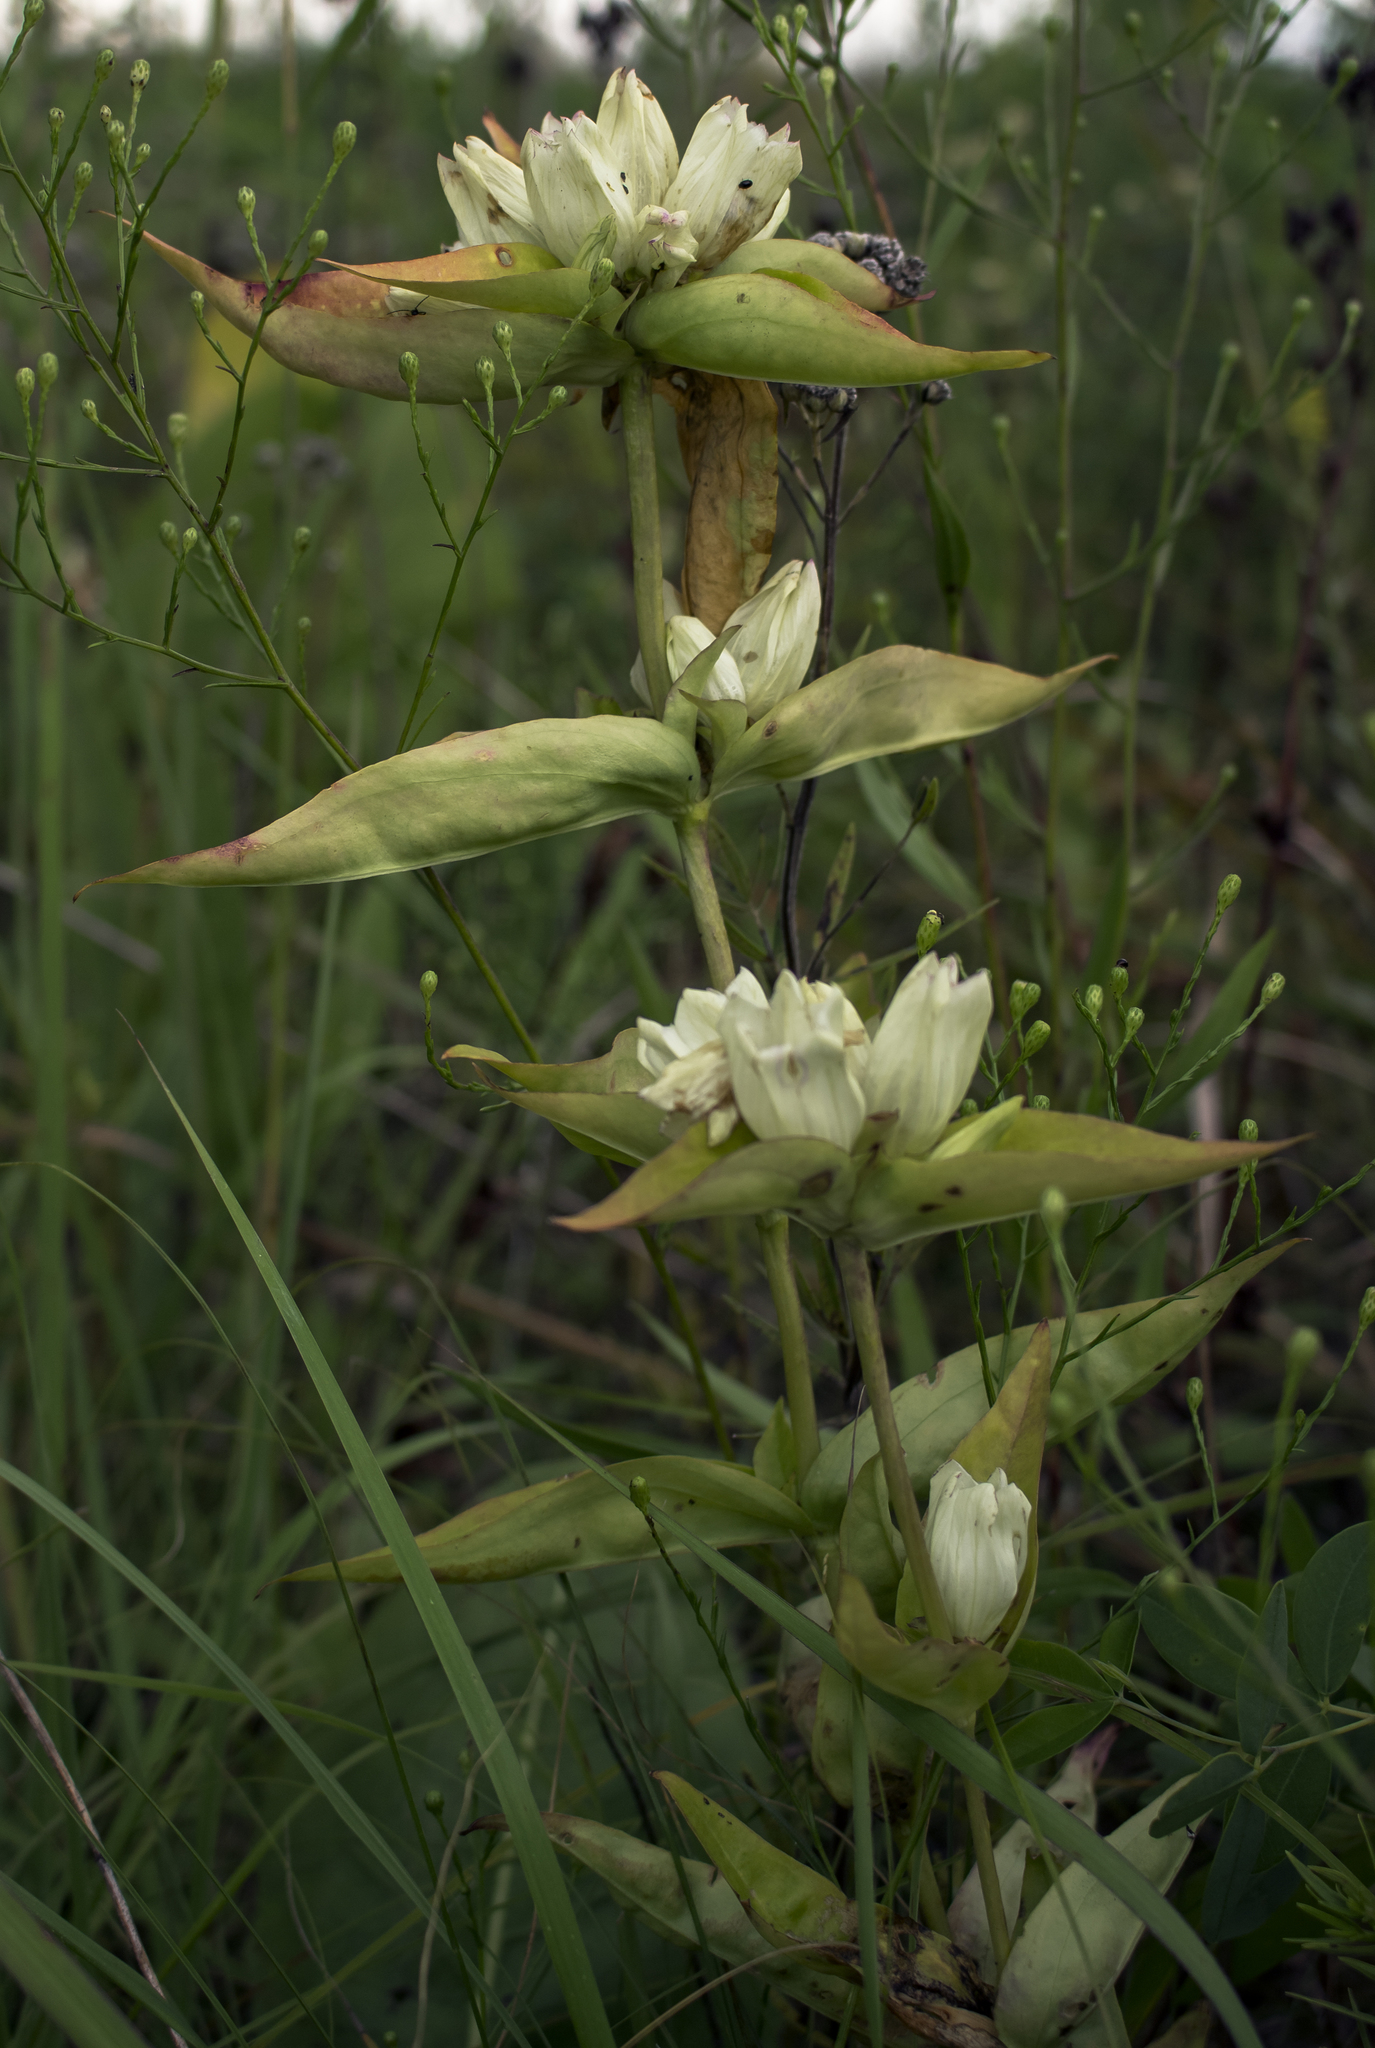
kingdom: Plantae
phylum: Tracheophyta
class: Magnoliopsida
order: Gentianales
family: Gentianaceae
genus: Gentiana
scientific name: Gentiana alba
